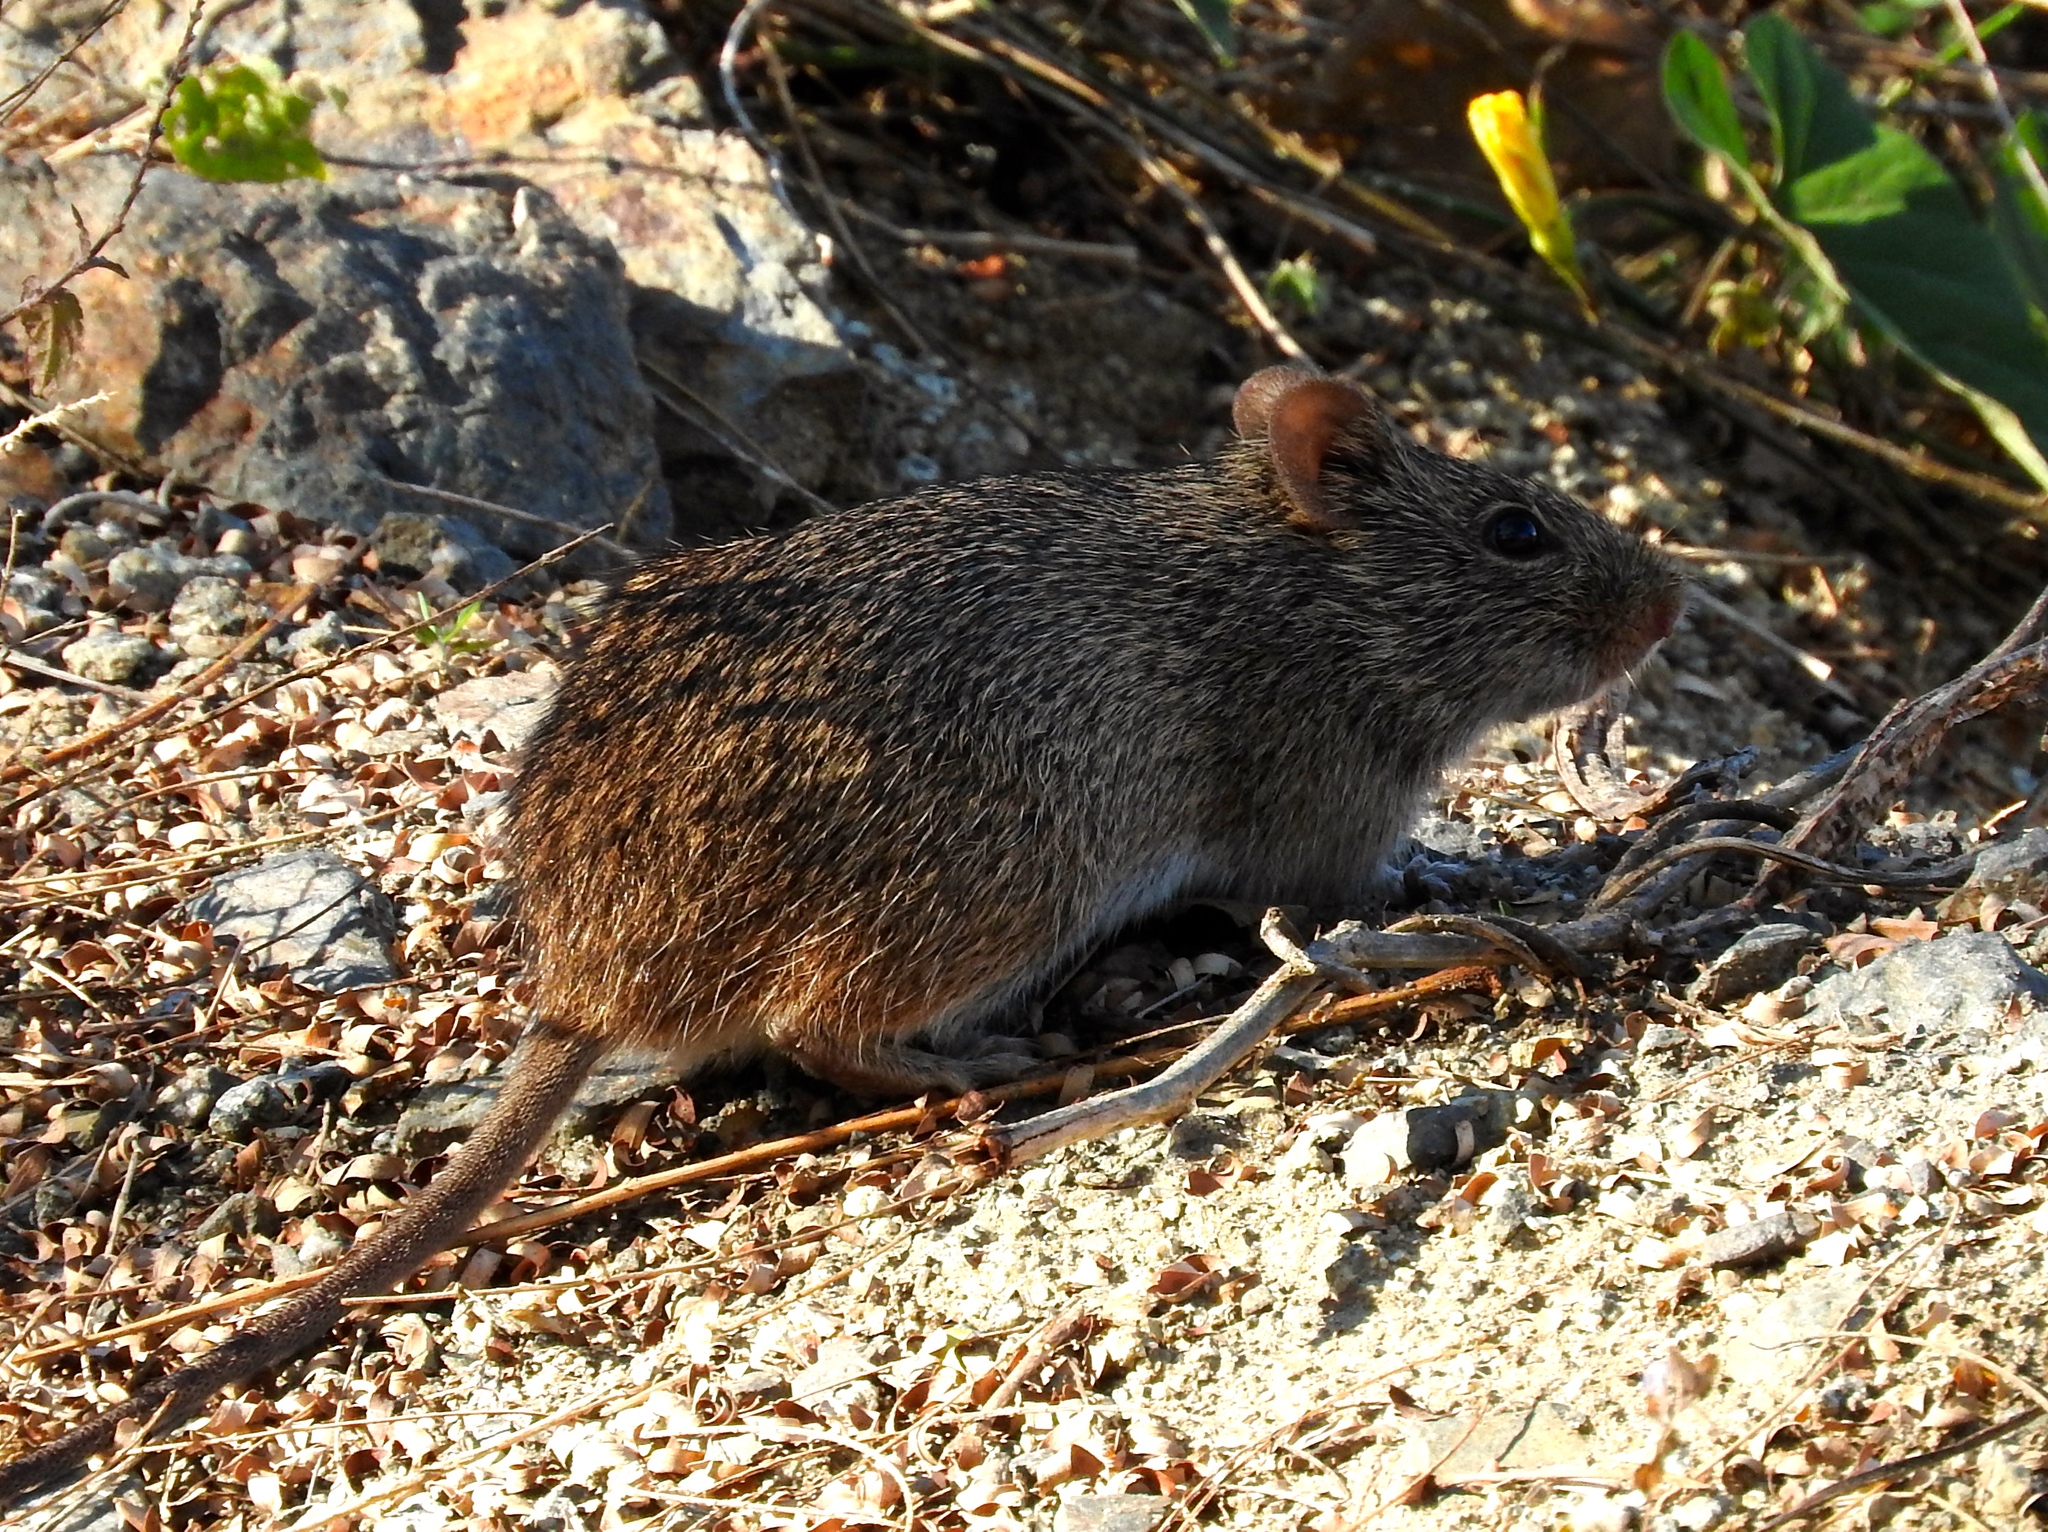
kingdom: Animalia
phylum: Chordata
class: Mammalia
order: Rodentia
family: Cricetidae
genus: Sigmodon
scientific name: Sigmodon arizonae
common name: Arizona cotton rat
